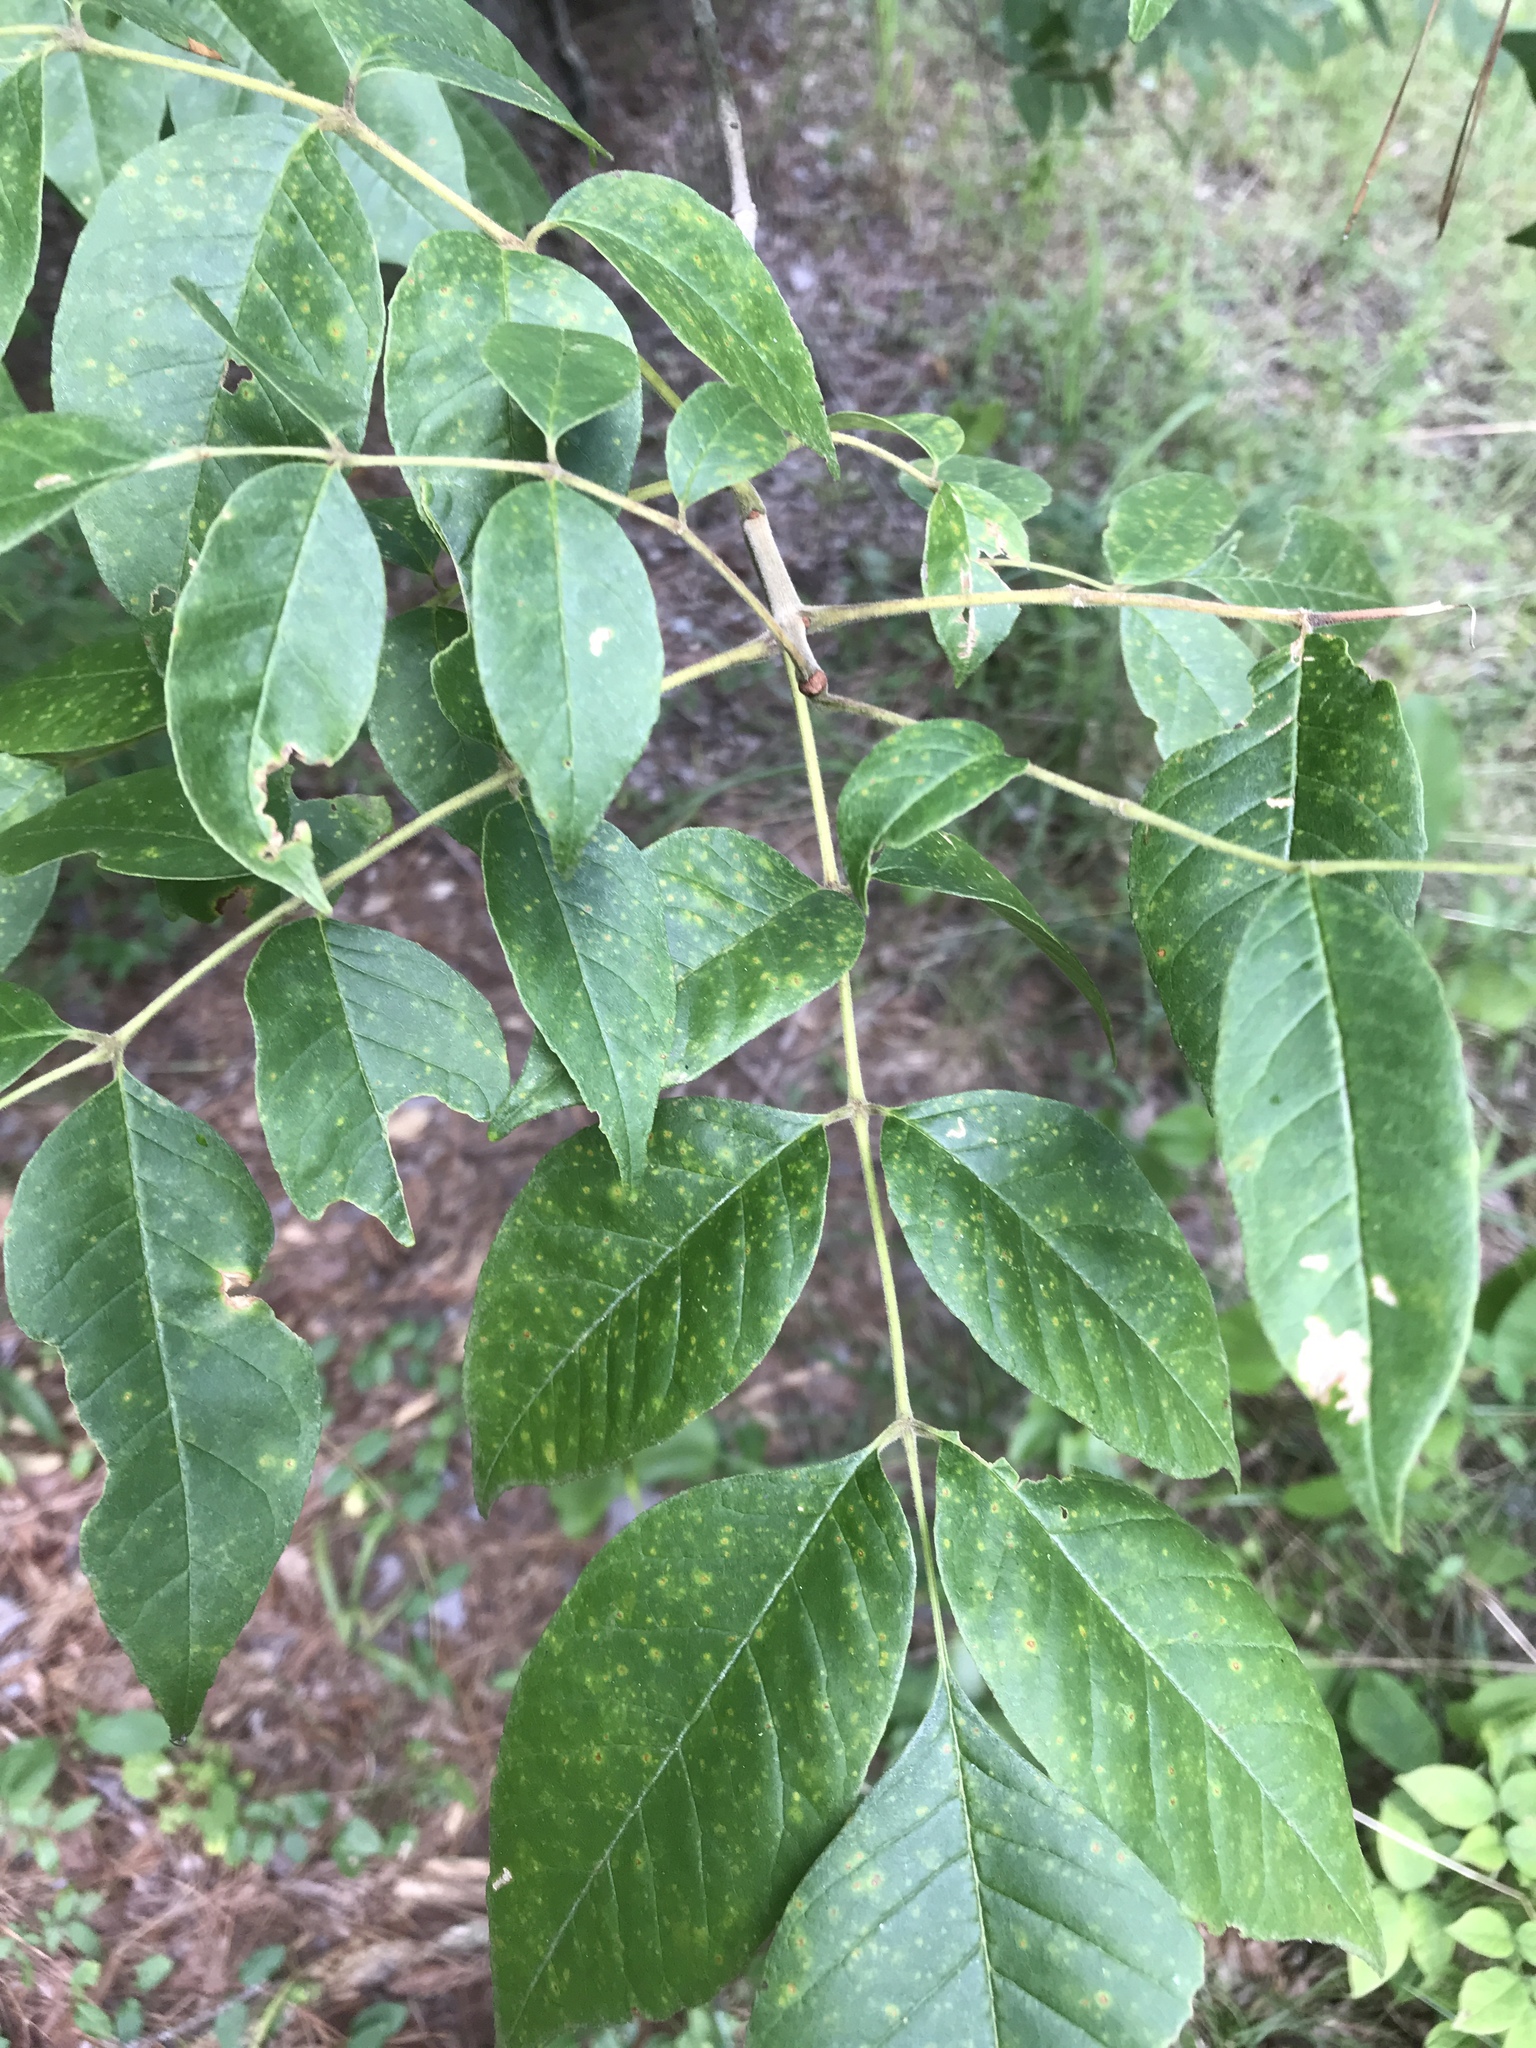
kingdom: Plantae
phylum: Tracheophyta
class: Magnoliopsida
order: Lamiales
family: Oleaceae
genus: Fraxinus
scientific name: Fraxinus americana
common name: White ash
